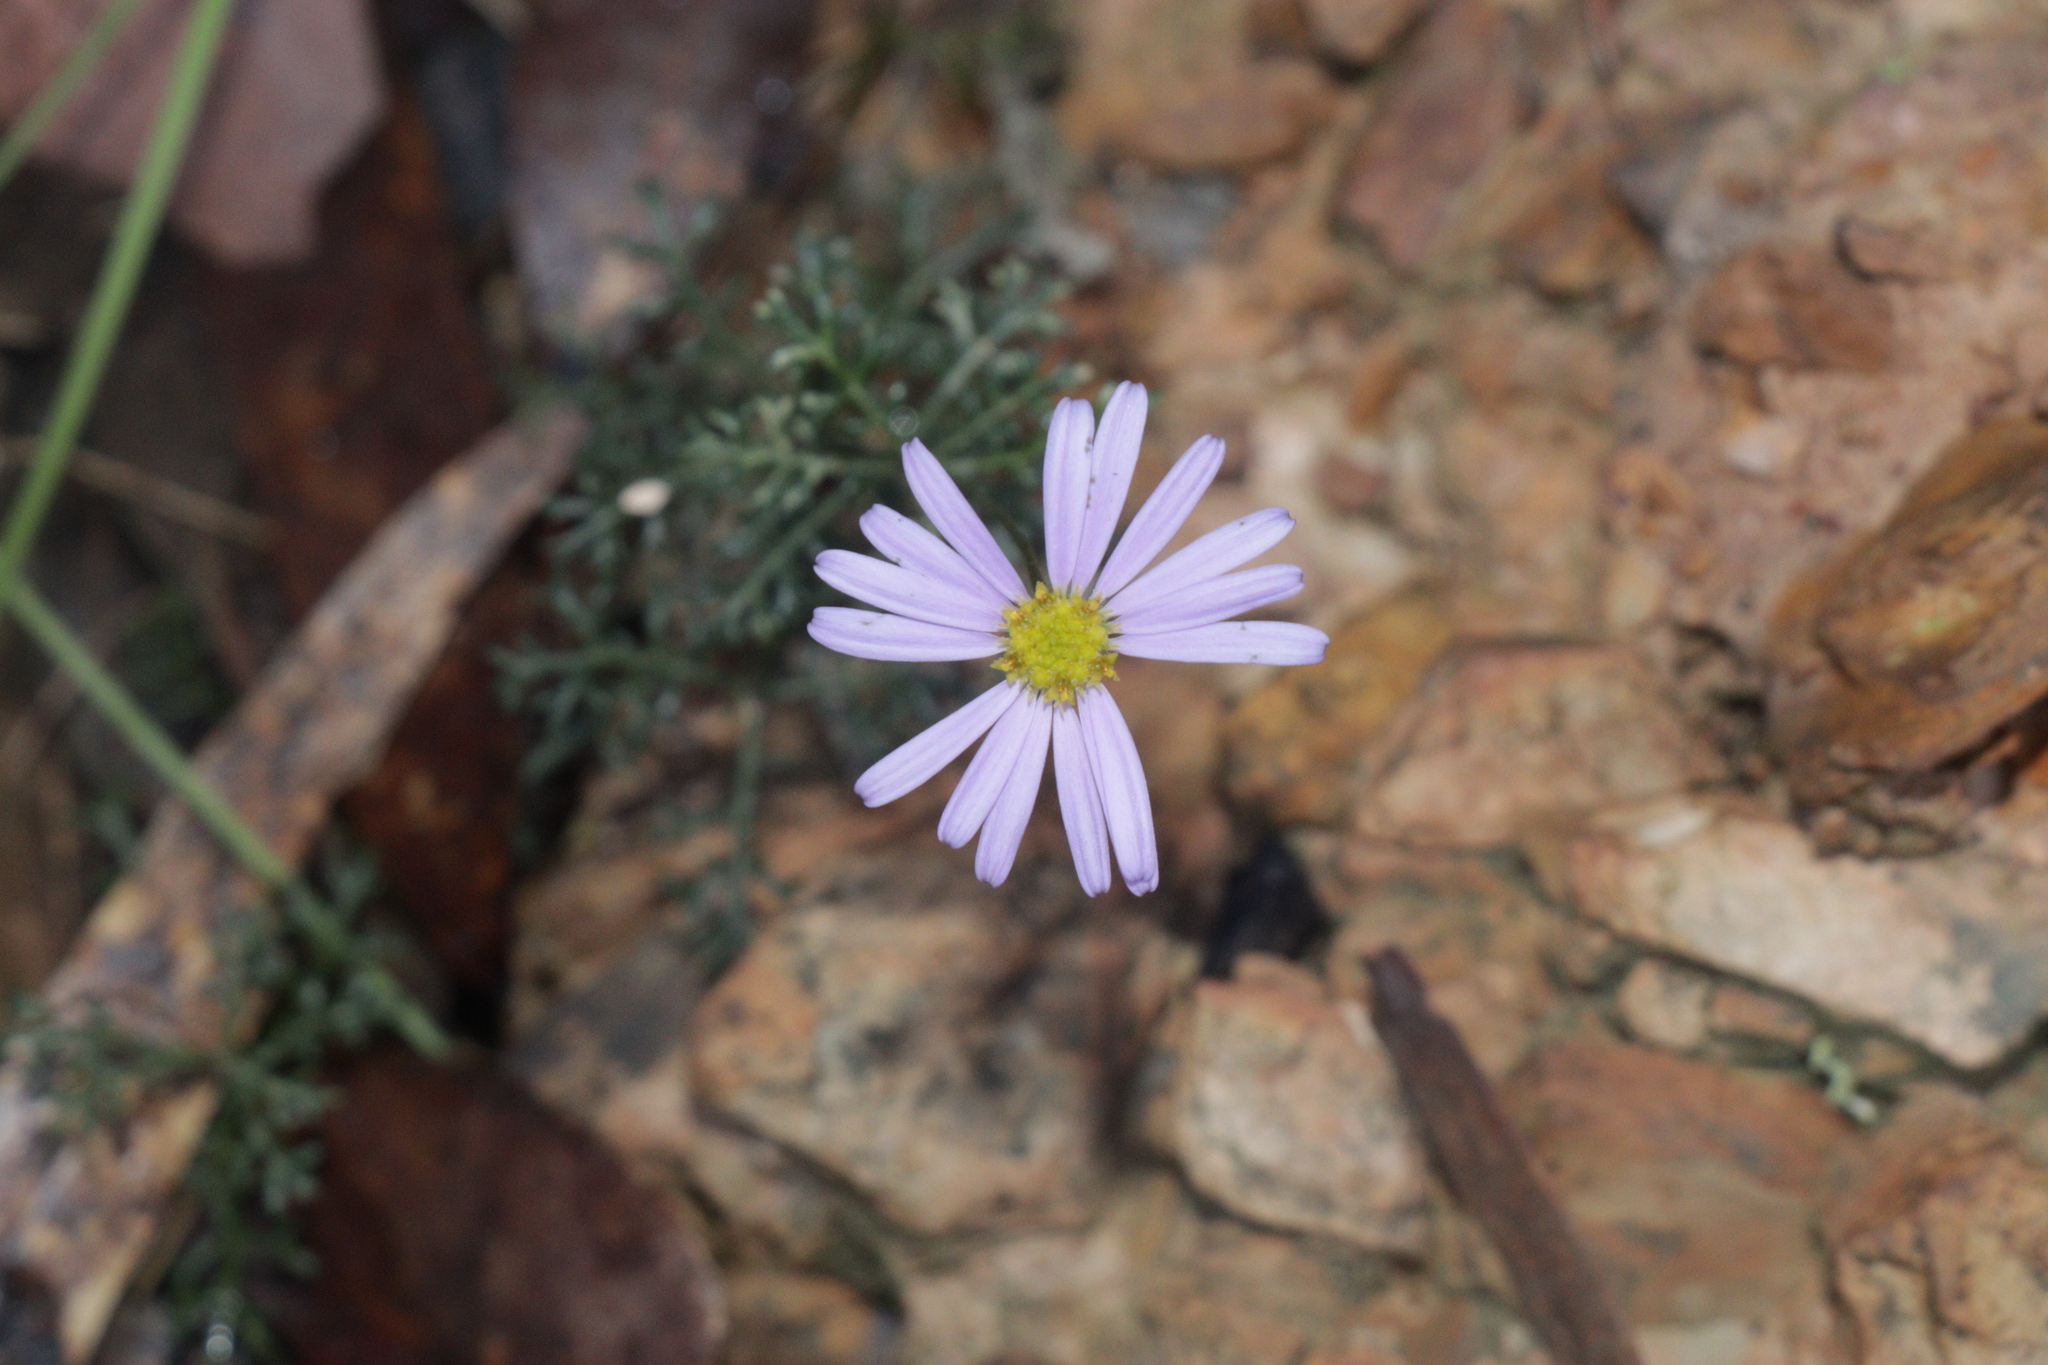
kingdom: Plantae
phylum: Tracheophyta
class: Magnoliopsida
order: Asterales
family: Asteraceae
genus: Brachyscome
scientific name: Brachyscome multifida
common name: Cut-leaf daisy
